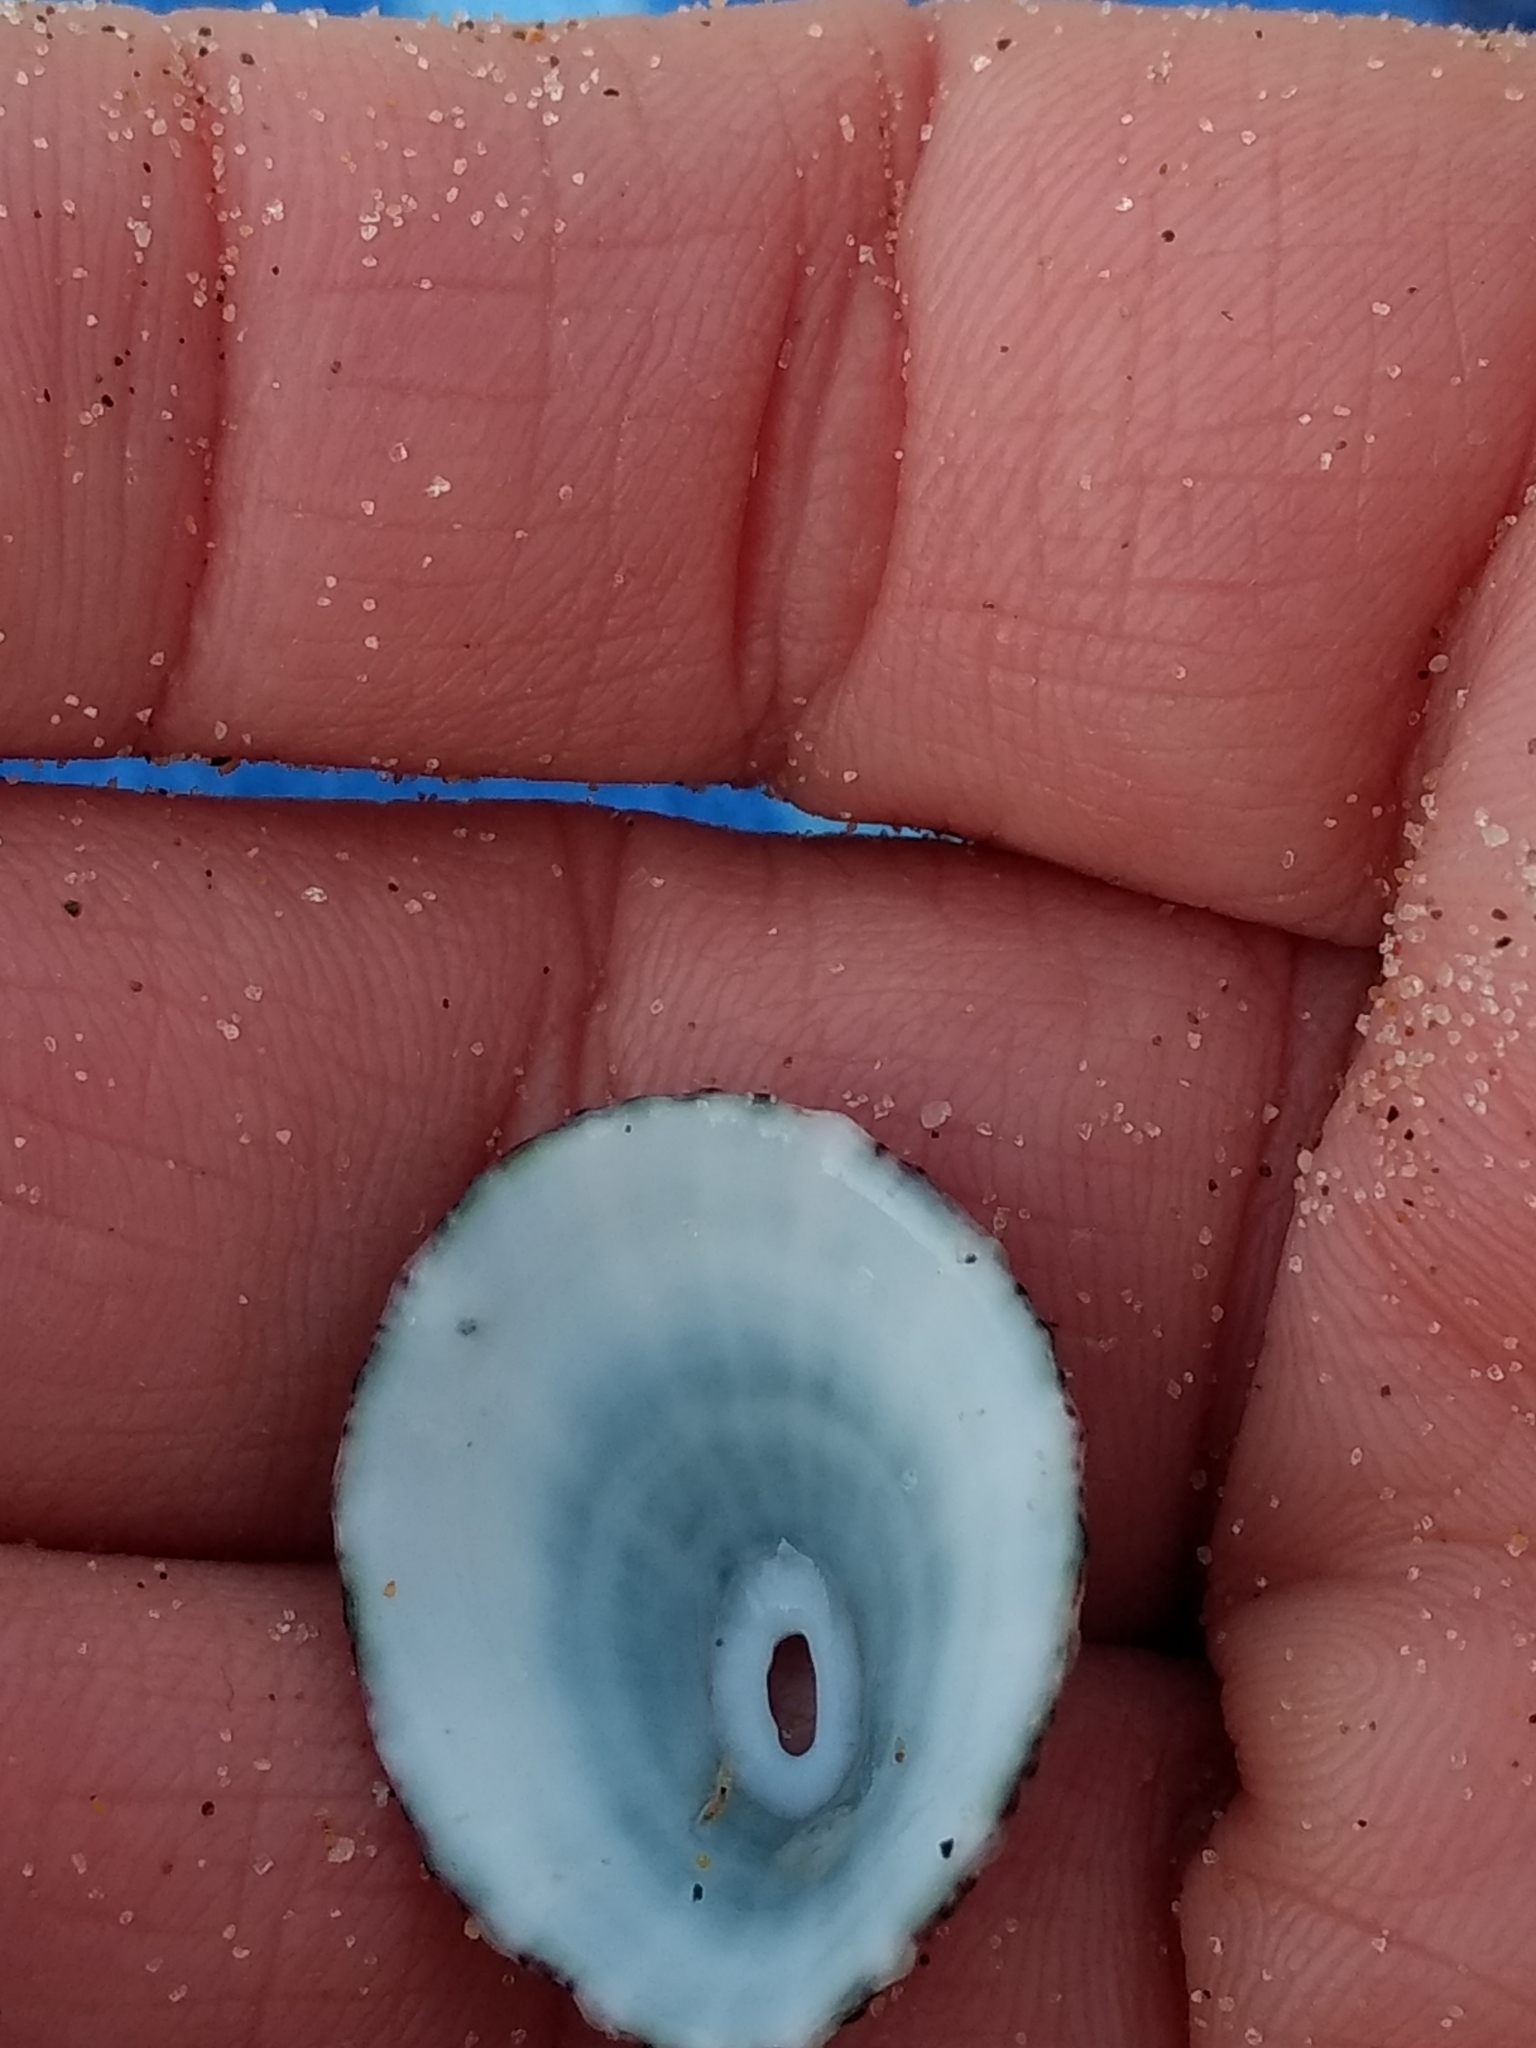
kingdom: Animalia
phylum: Mollusca
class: Gastropoda
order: Lepetellida
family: Fissurellidae
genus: Fissurella
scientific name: Fissurella volcano
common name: Volcano keyhole limpet
